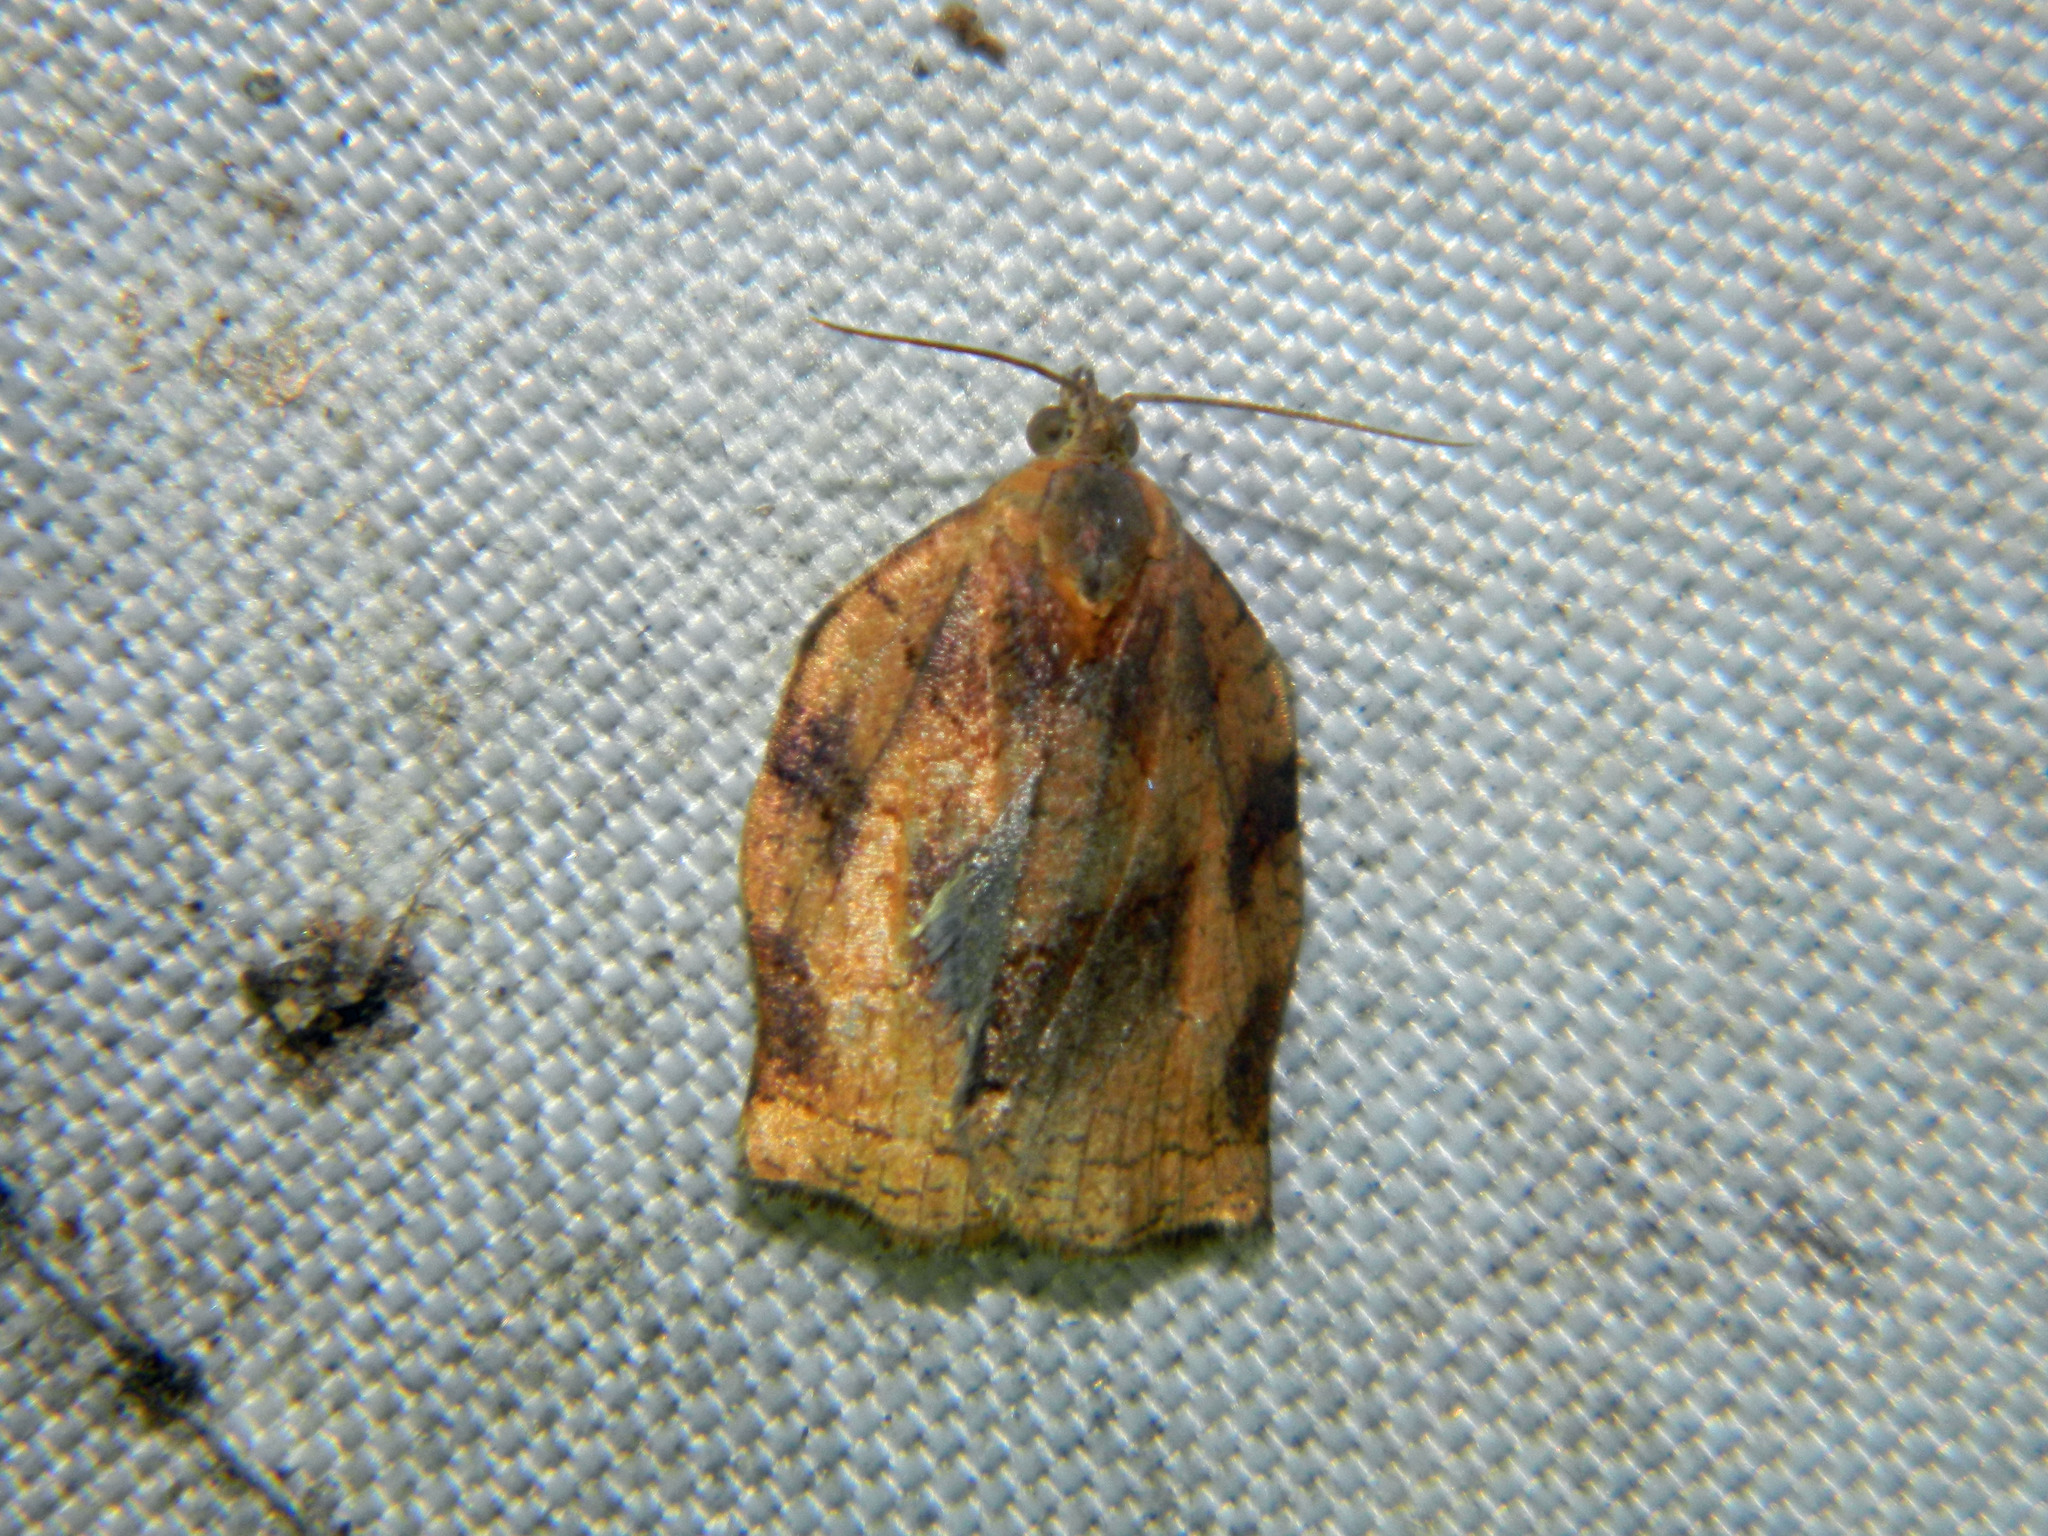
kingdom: Animalia
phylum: Arthropoda
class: Insecta
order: Lepidoptera
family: Tortricidae
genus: Archips
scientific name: Archips purpurana
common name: Omnivorous leafroller
